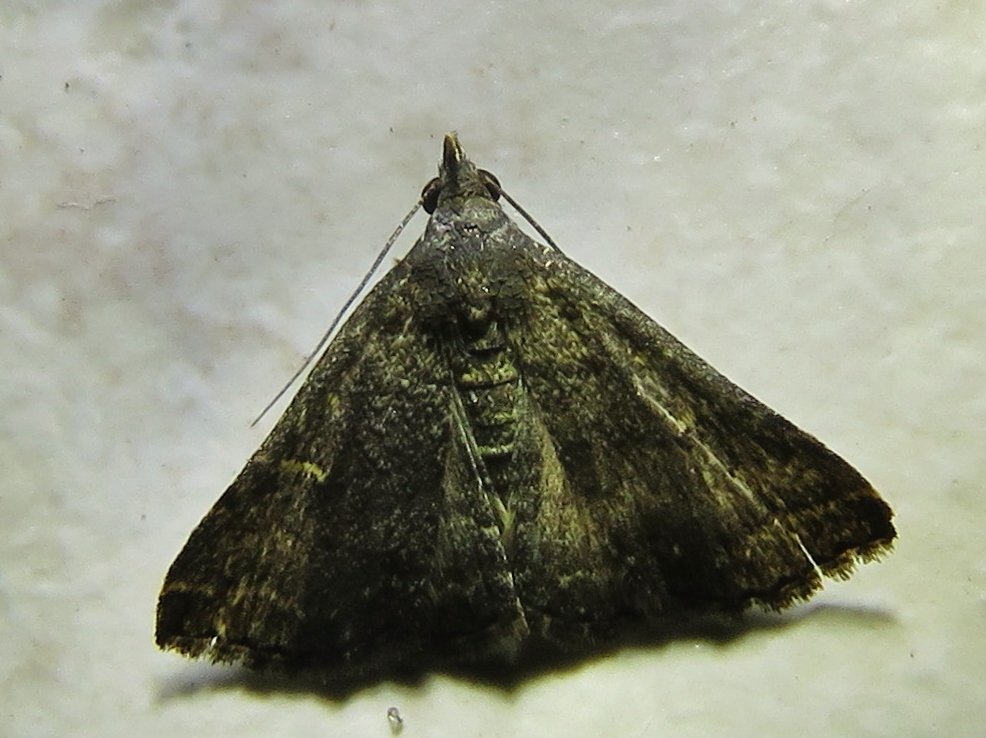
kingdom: Animalia
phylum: Arthropoda
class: Insecta
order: Lepidoptera
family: Erebidae
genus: Tetanolita
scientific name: Tetanolita mynesalis
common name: Smoky tetanolita moth
